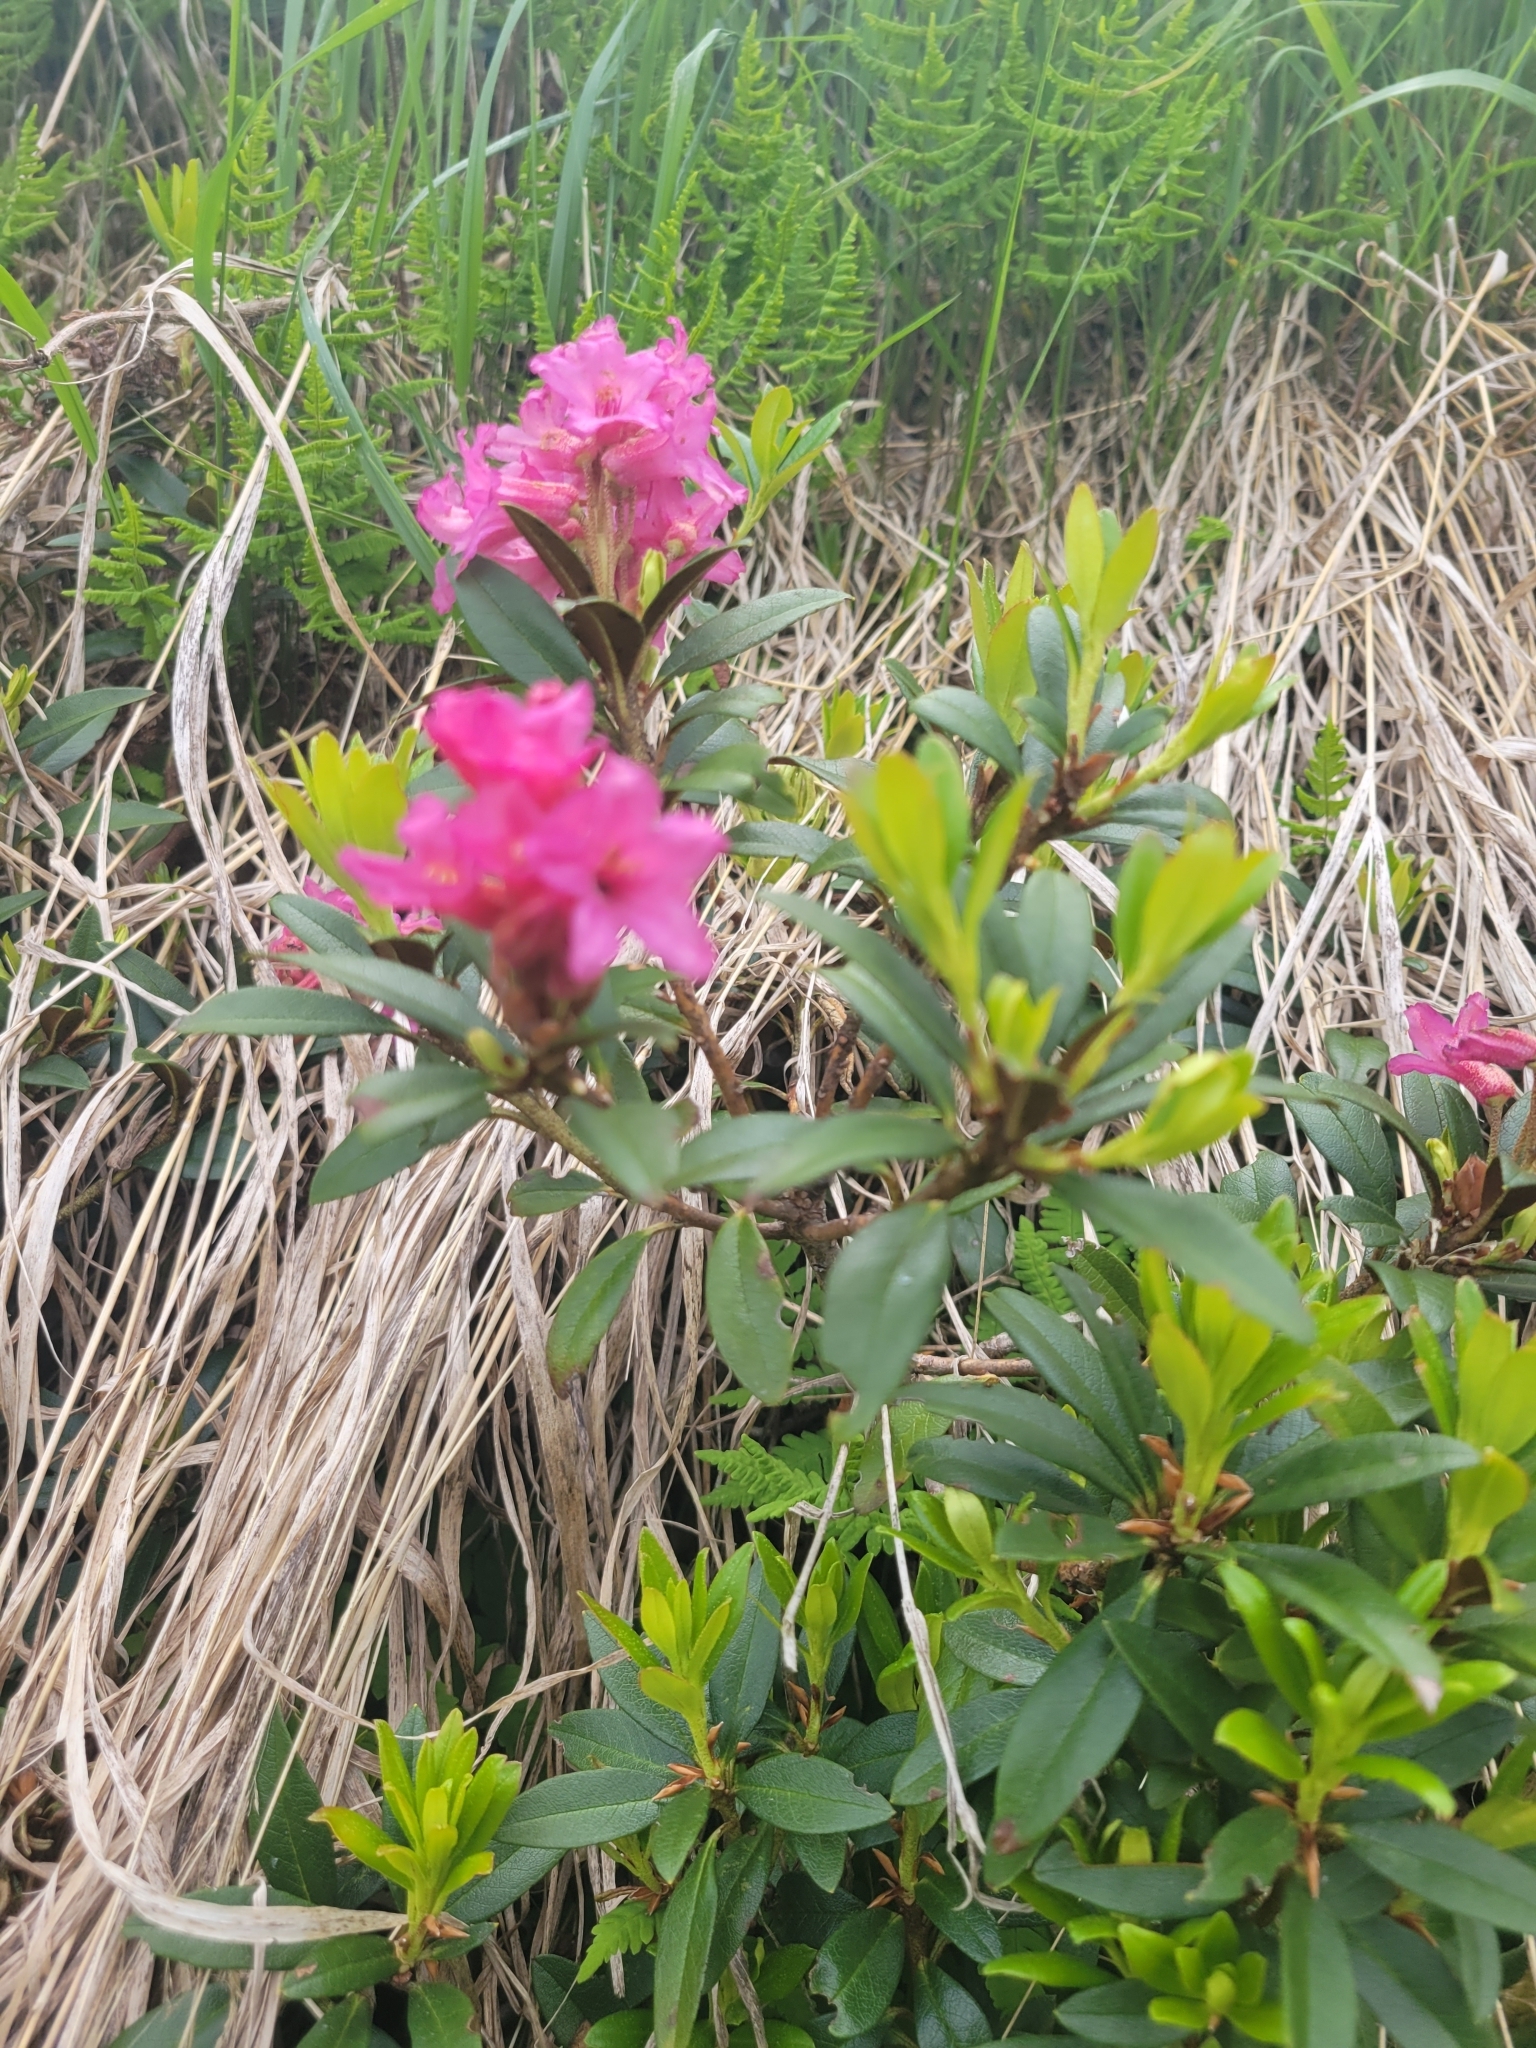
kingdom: Plantae
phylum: Tracheophyta
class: Magnoliopsida
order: Ericales
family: Ericaceae
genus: Rhododendron
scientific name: Rhododendron ferrugineum
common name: Alpenrose
